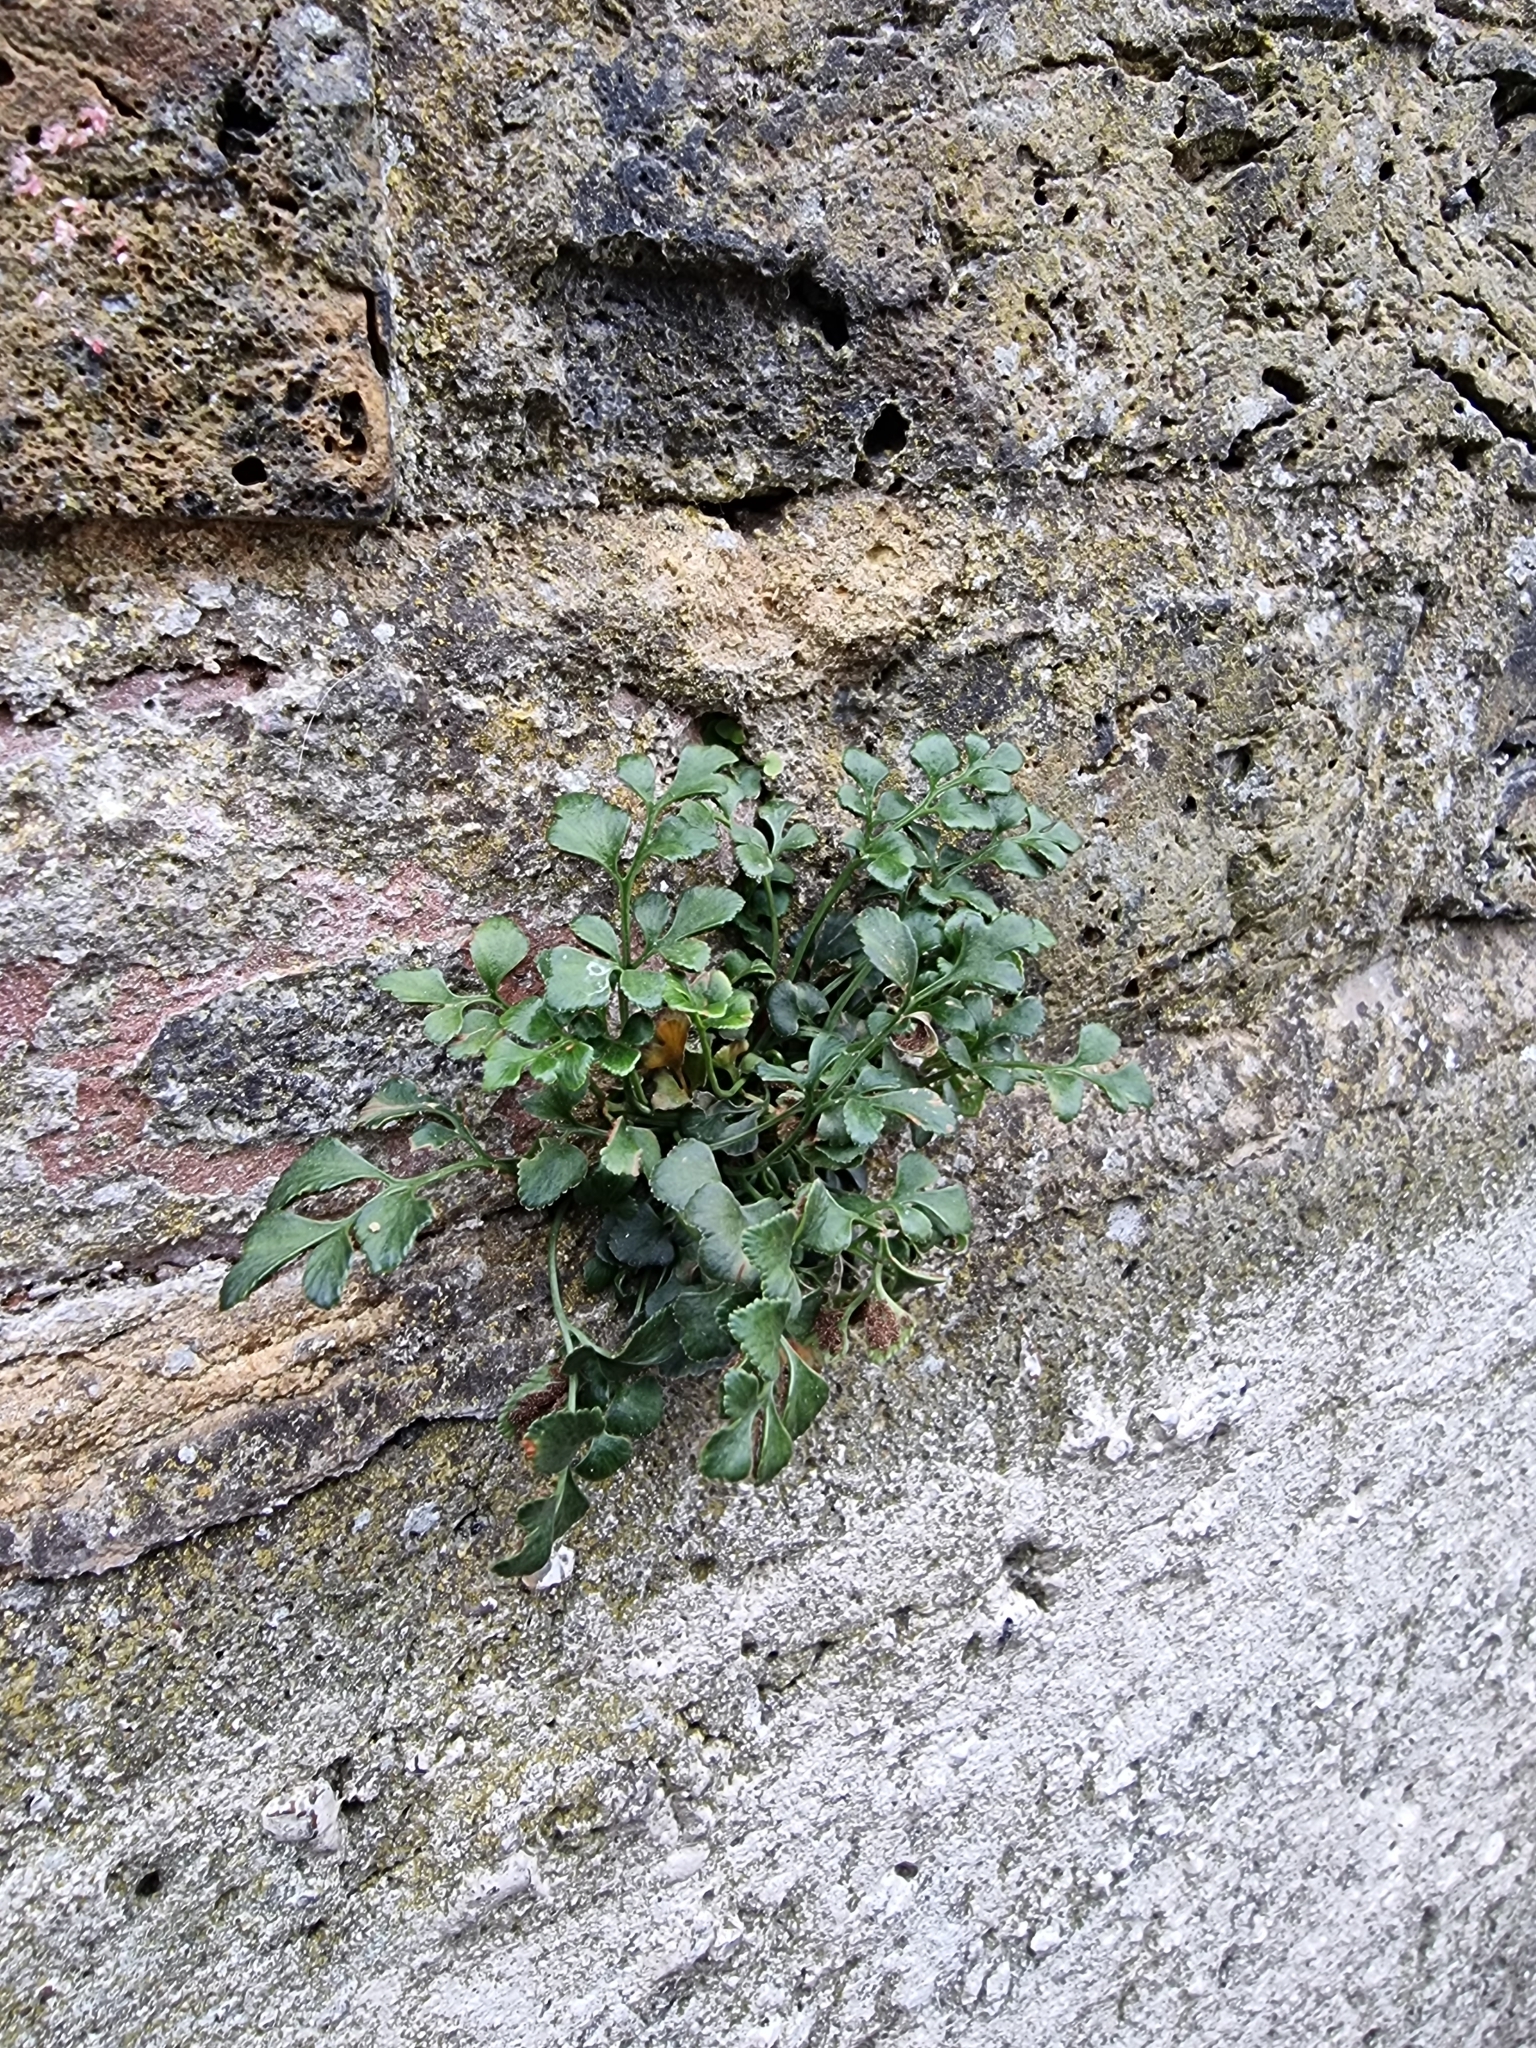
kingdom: Plantae
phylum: Tracheophyta
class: Polypodiopsida
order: Polypodiales
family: Aspleniaceae
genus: Asplenium
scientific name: Asplenium ruta-muraria
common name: Wall-rue
